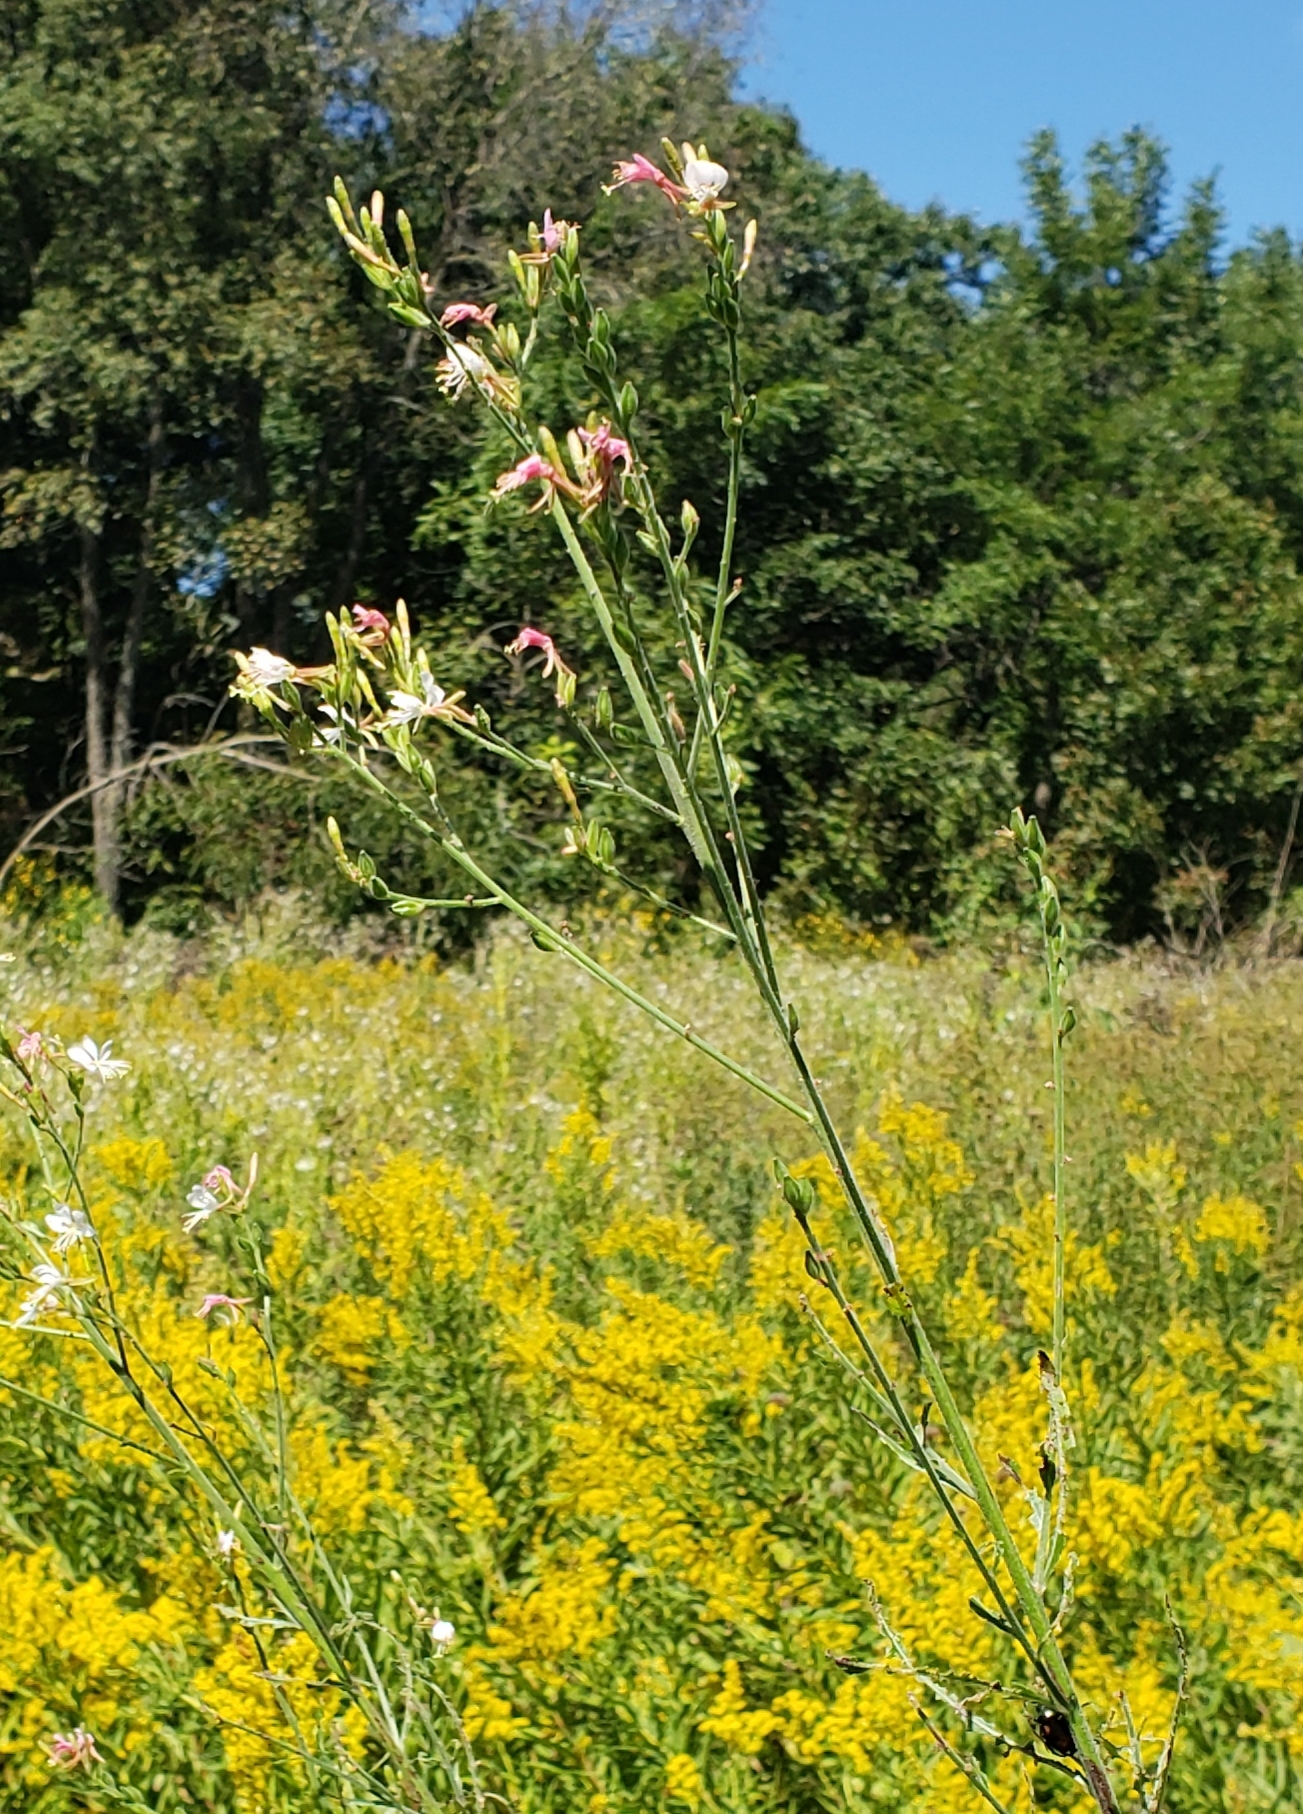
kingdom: Plantae
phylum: Tracheophyta
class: Magnoliopsida
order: Myrtales
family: Onagraceae
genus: Oenothera
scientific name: Oenothera gaura
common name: Biennial beeblossom
